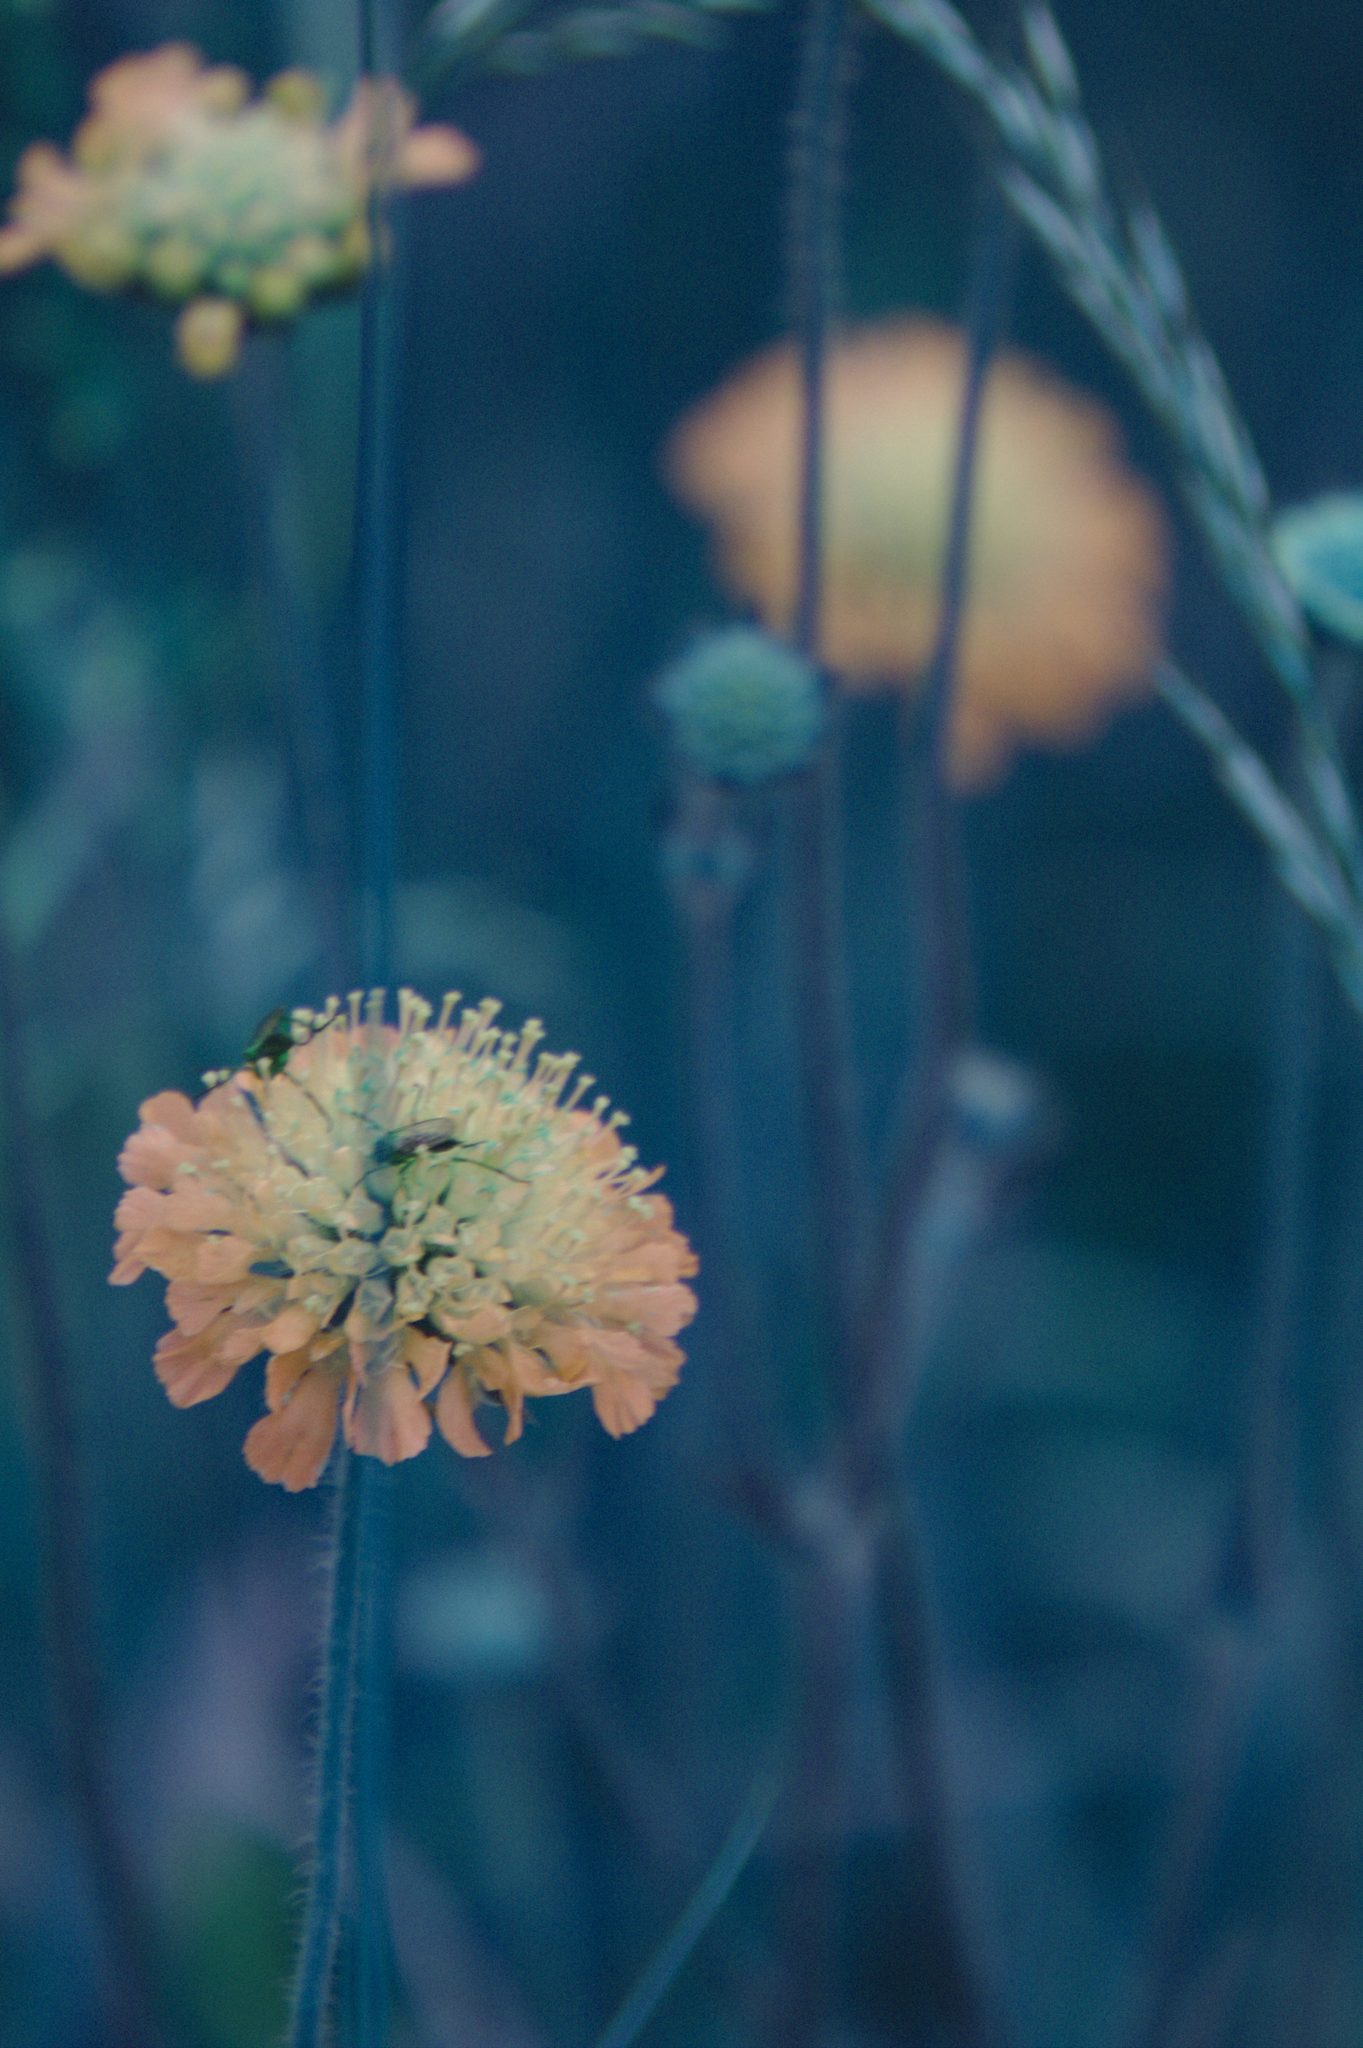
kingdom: Plantae
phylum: Tracheophyta
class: Magnoliopsida
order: Dipsacales
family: Caprifoliaceae
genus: Knautia
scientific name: Knautia arvensis
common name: Field scabiosa
